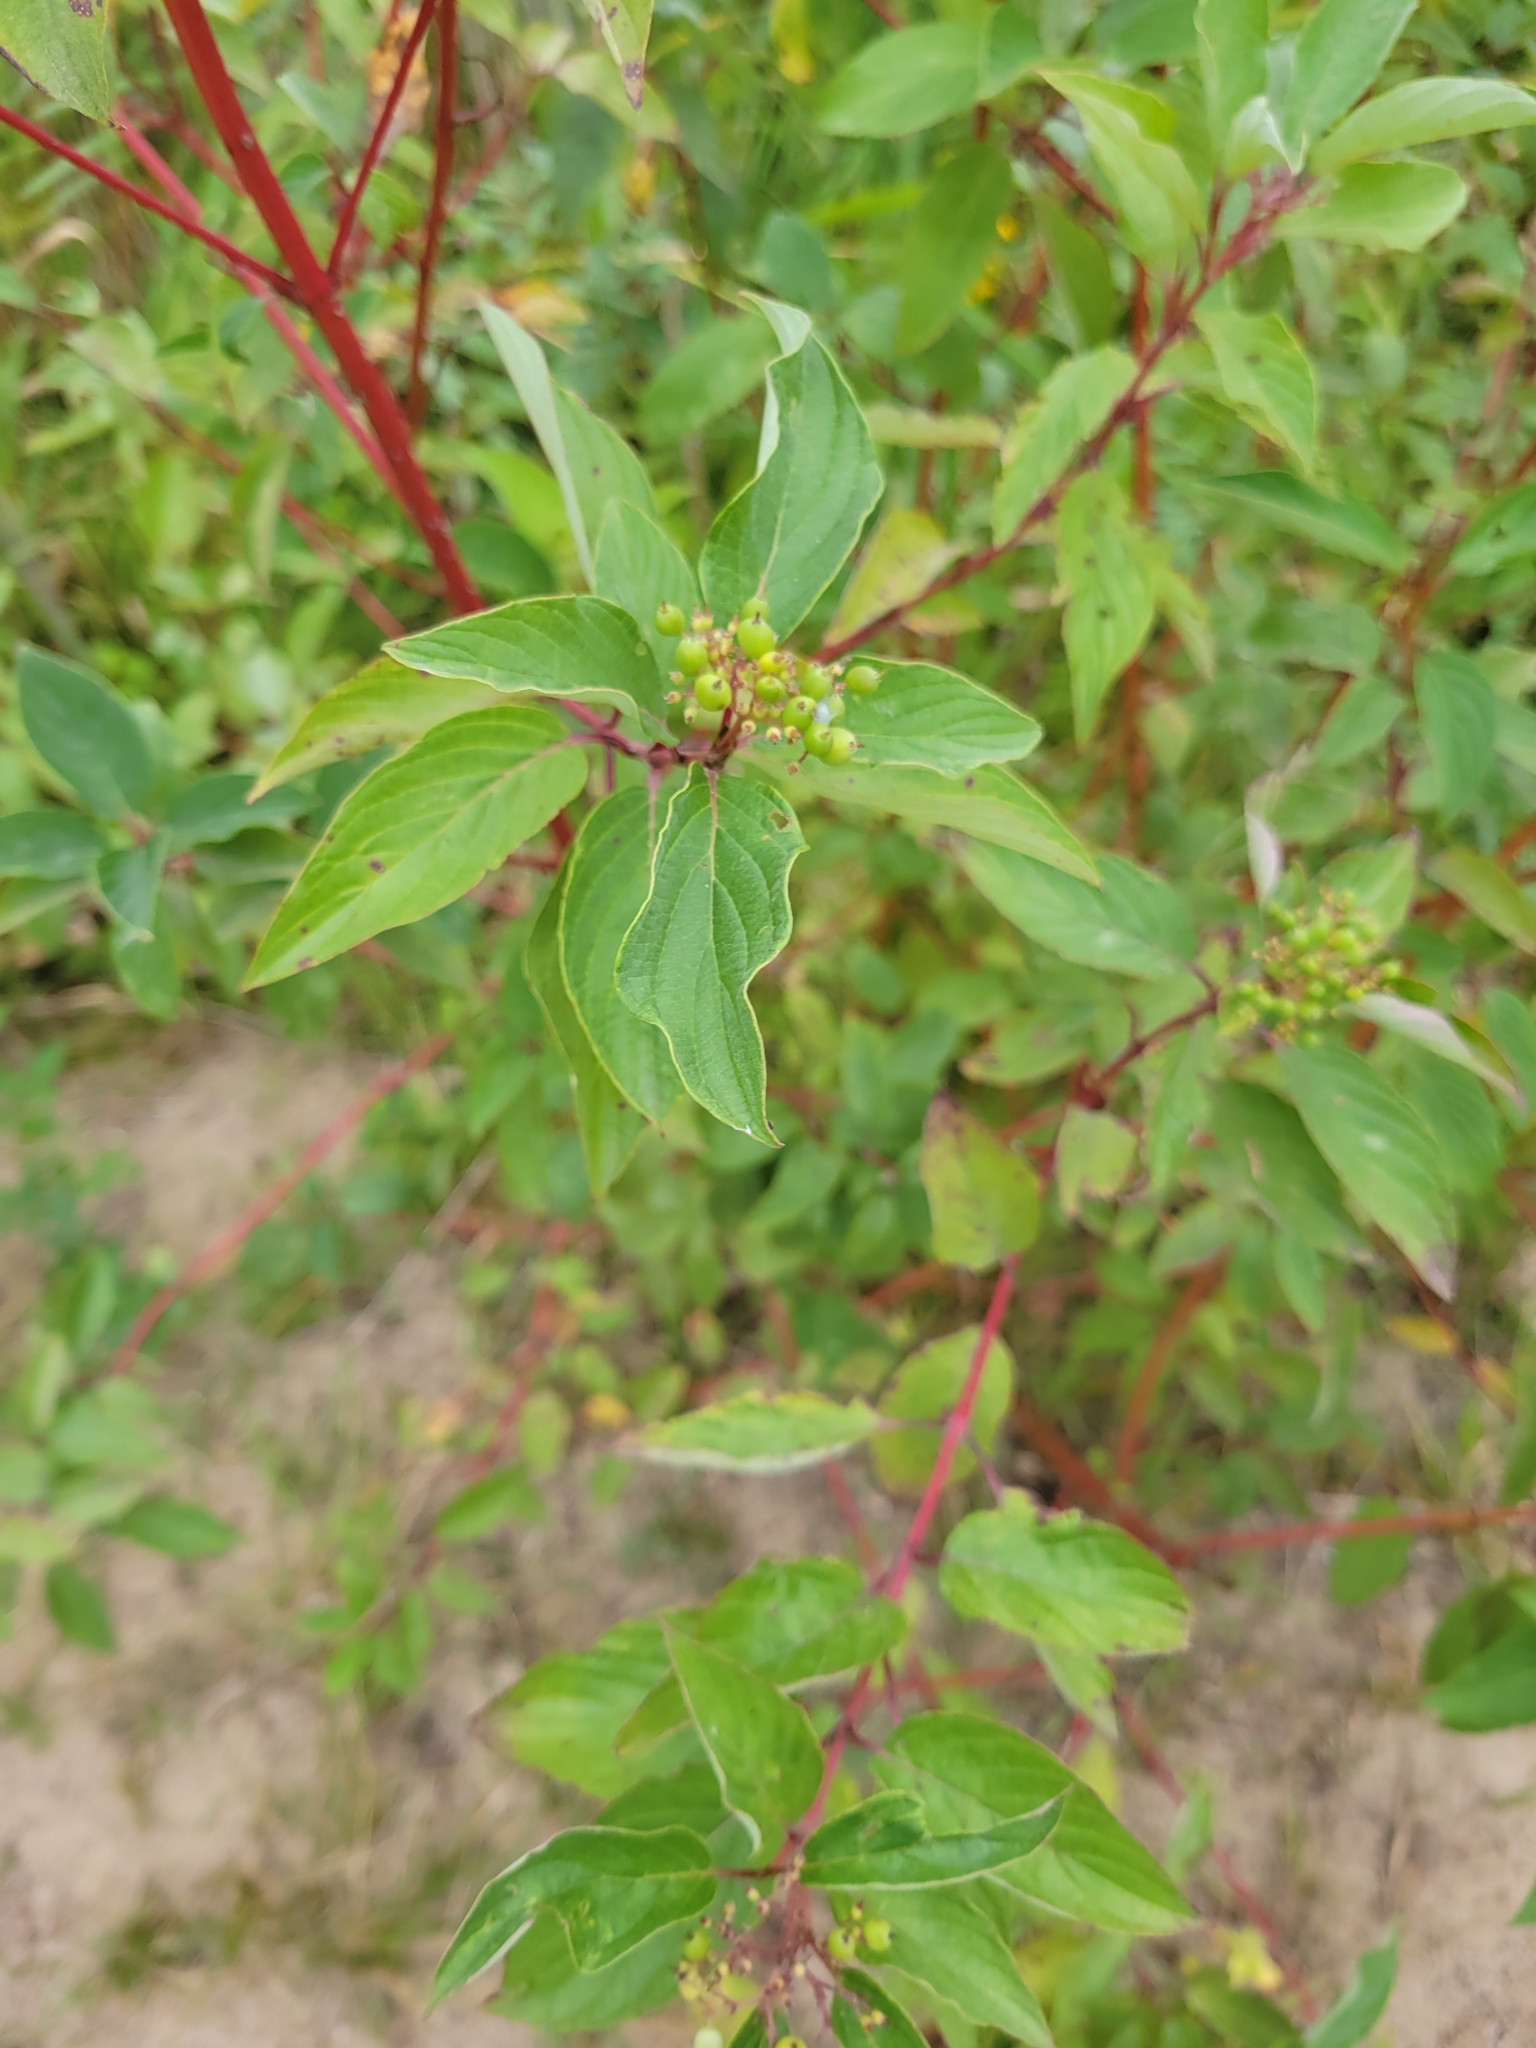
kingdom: Plantae
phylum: Tracheophyta
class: Magnoliopsida
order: Cornales
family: Cornaceae
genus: Cornus
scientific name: Cornus sericea
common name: Red-osier dogwood
